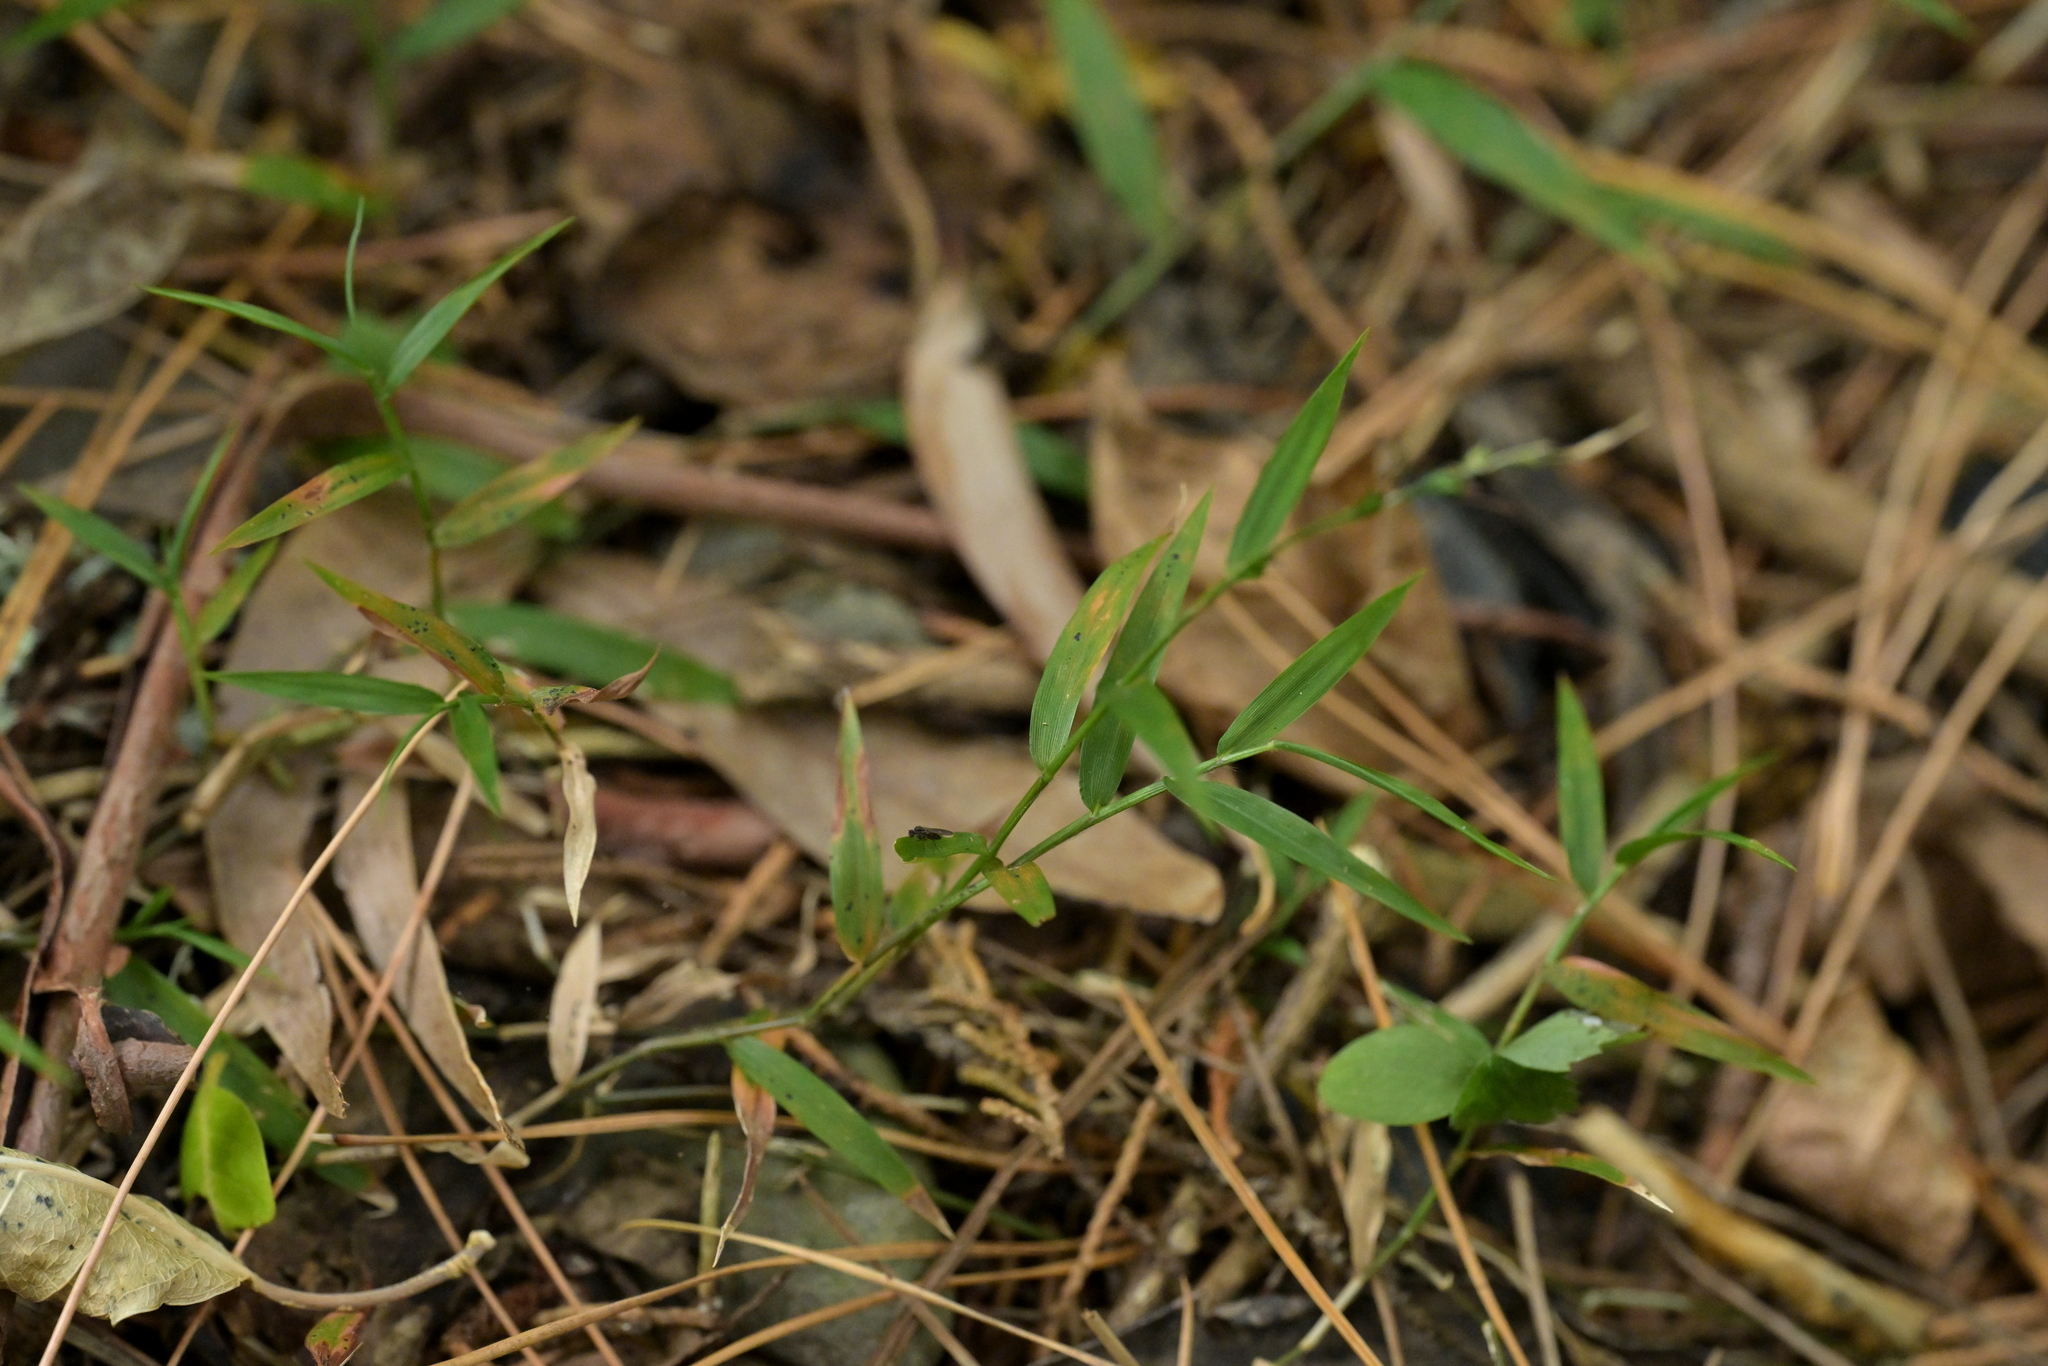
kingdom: Plantae
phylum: Tracheophyta
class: Liliopsida
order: Poales
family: Poaceae
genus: Oplismenus
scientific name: Oplismenus hirtellus
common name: Basketgrass
